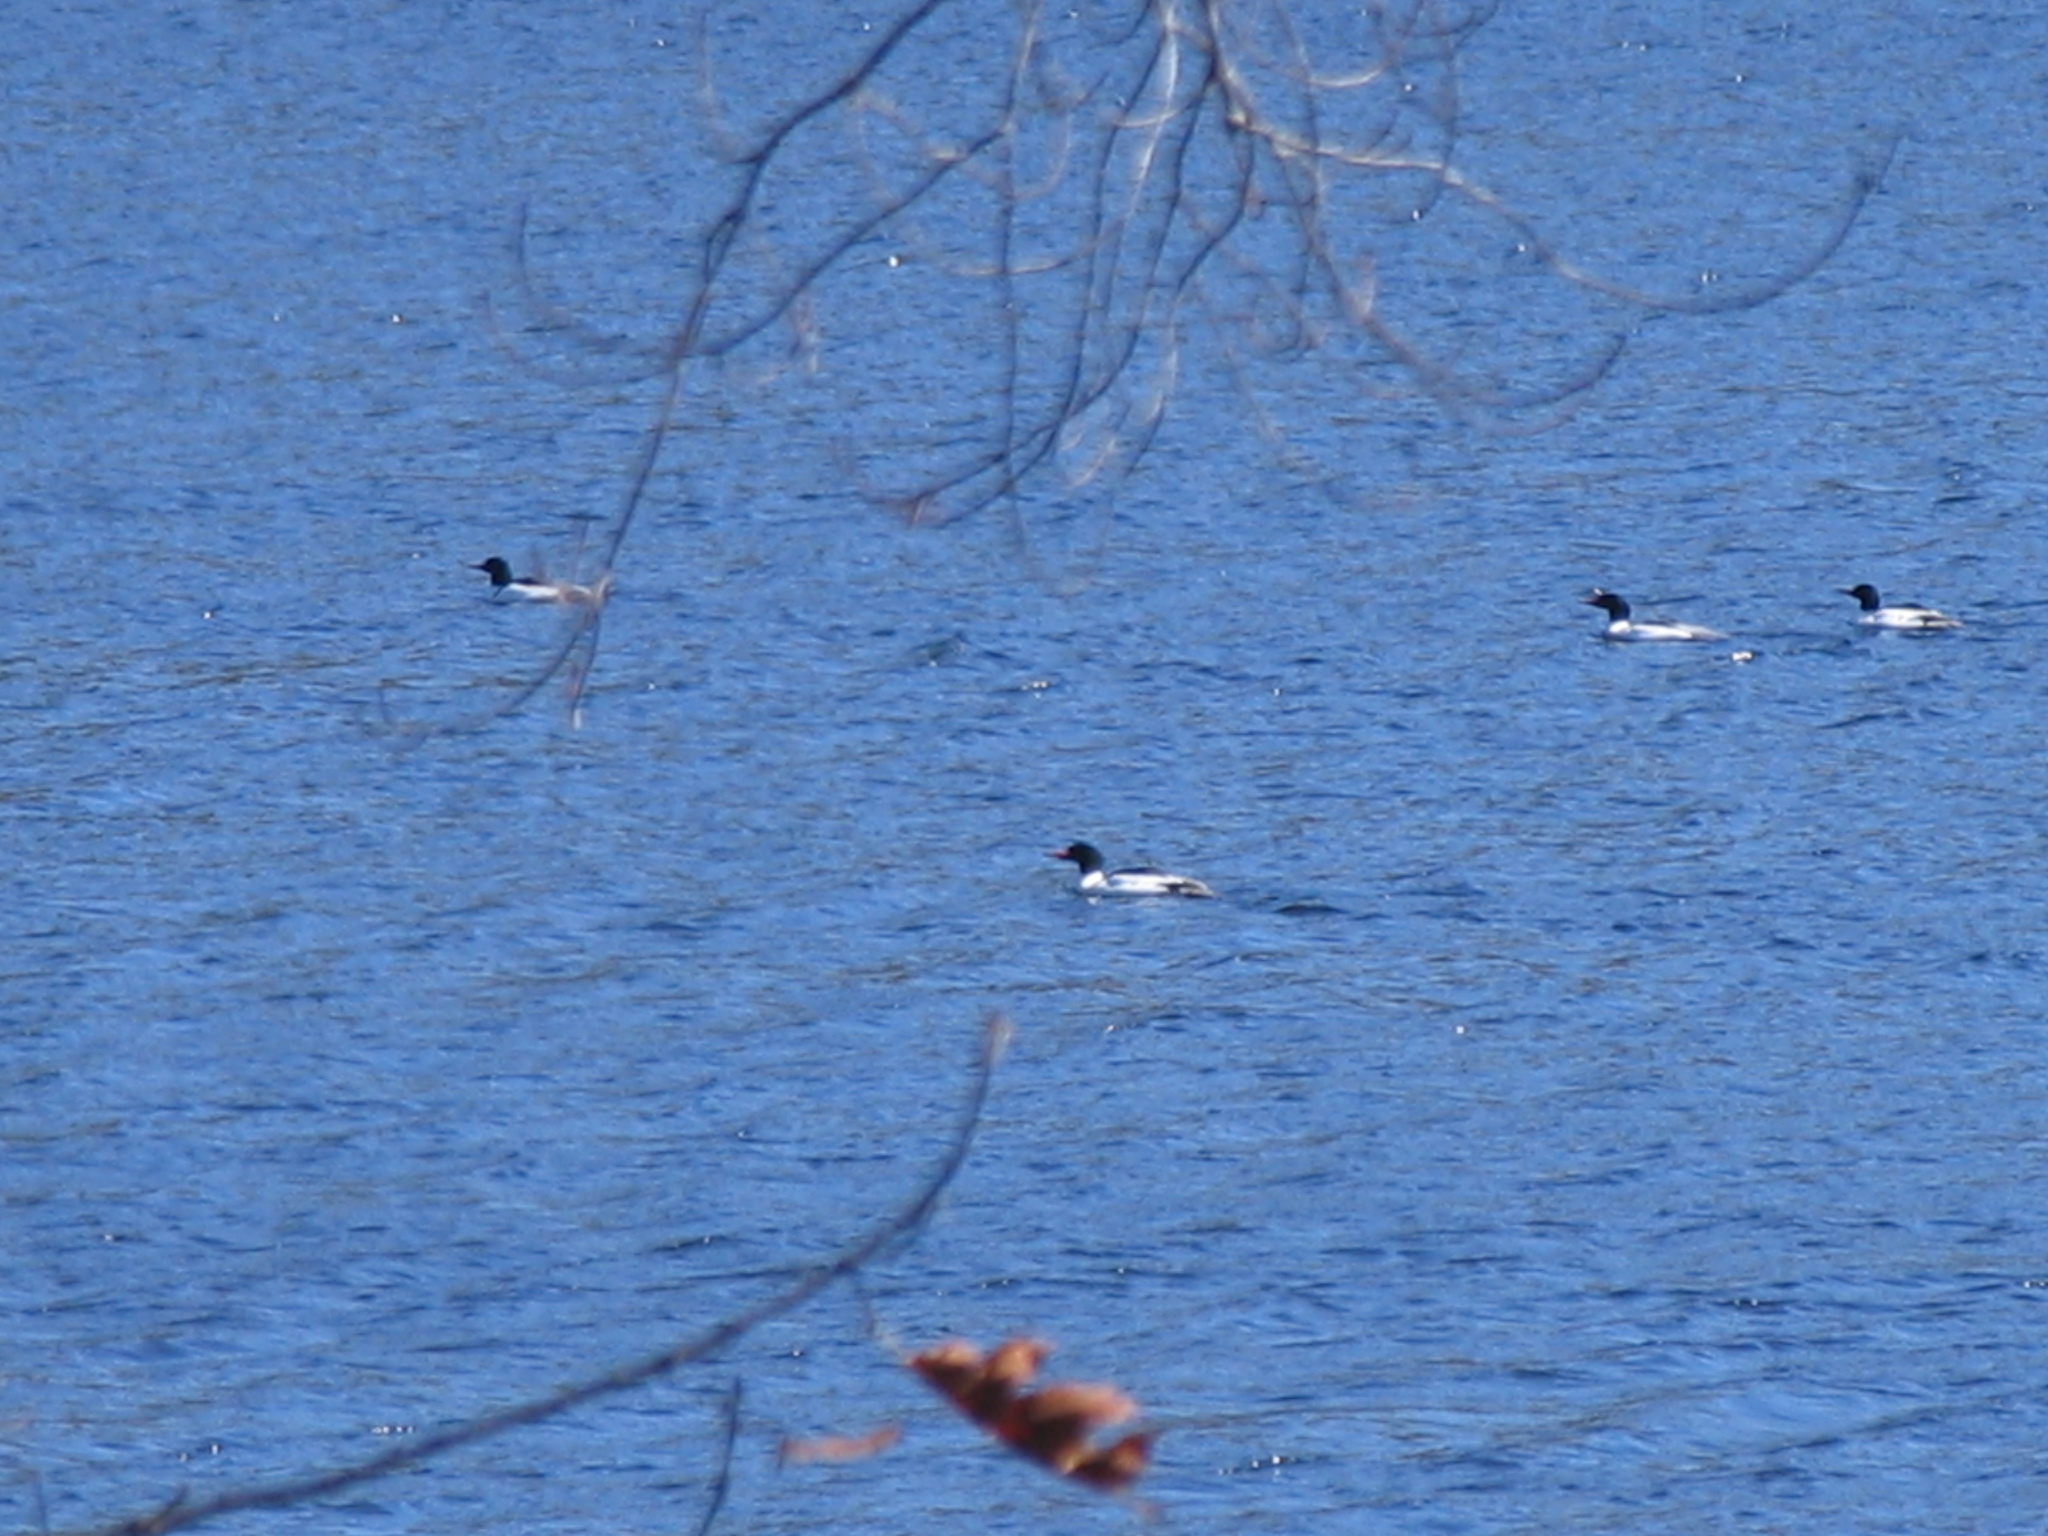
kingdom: Animalia
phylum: Chordata
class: Aves
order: Anseriformes
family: Anatidae
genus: Mergus
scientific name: Mergus merganser
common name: Common merganser
